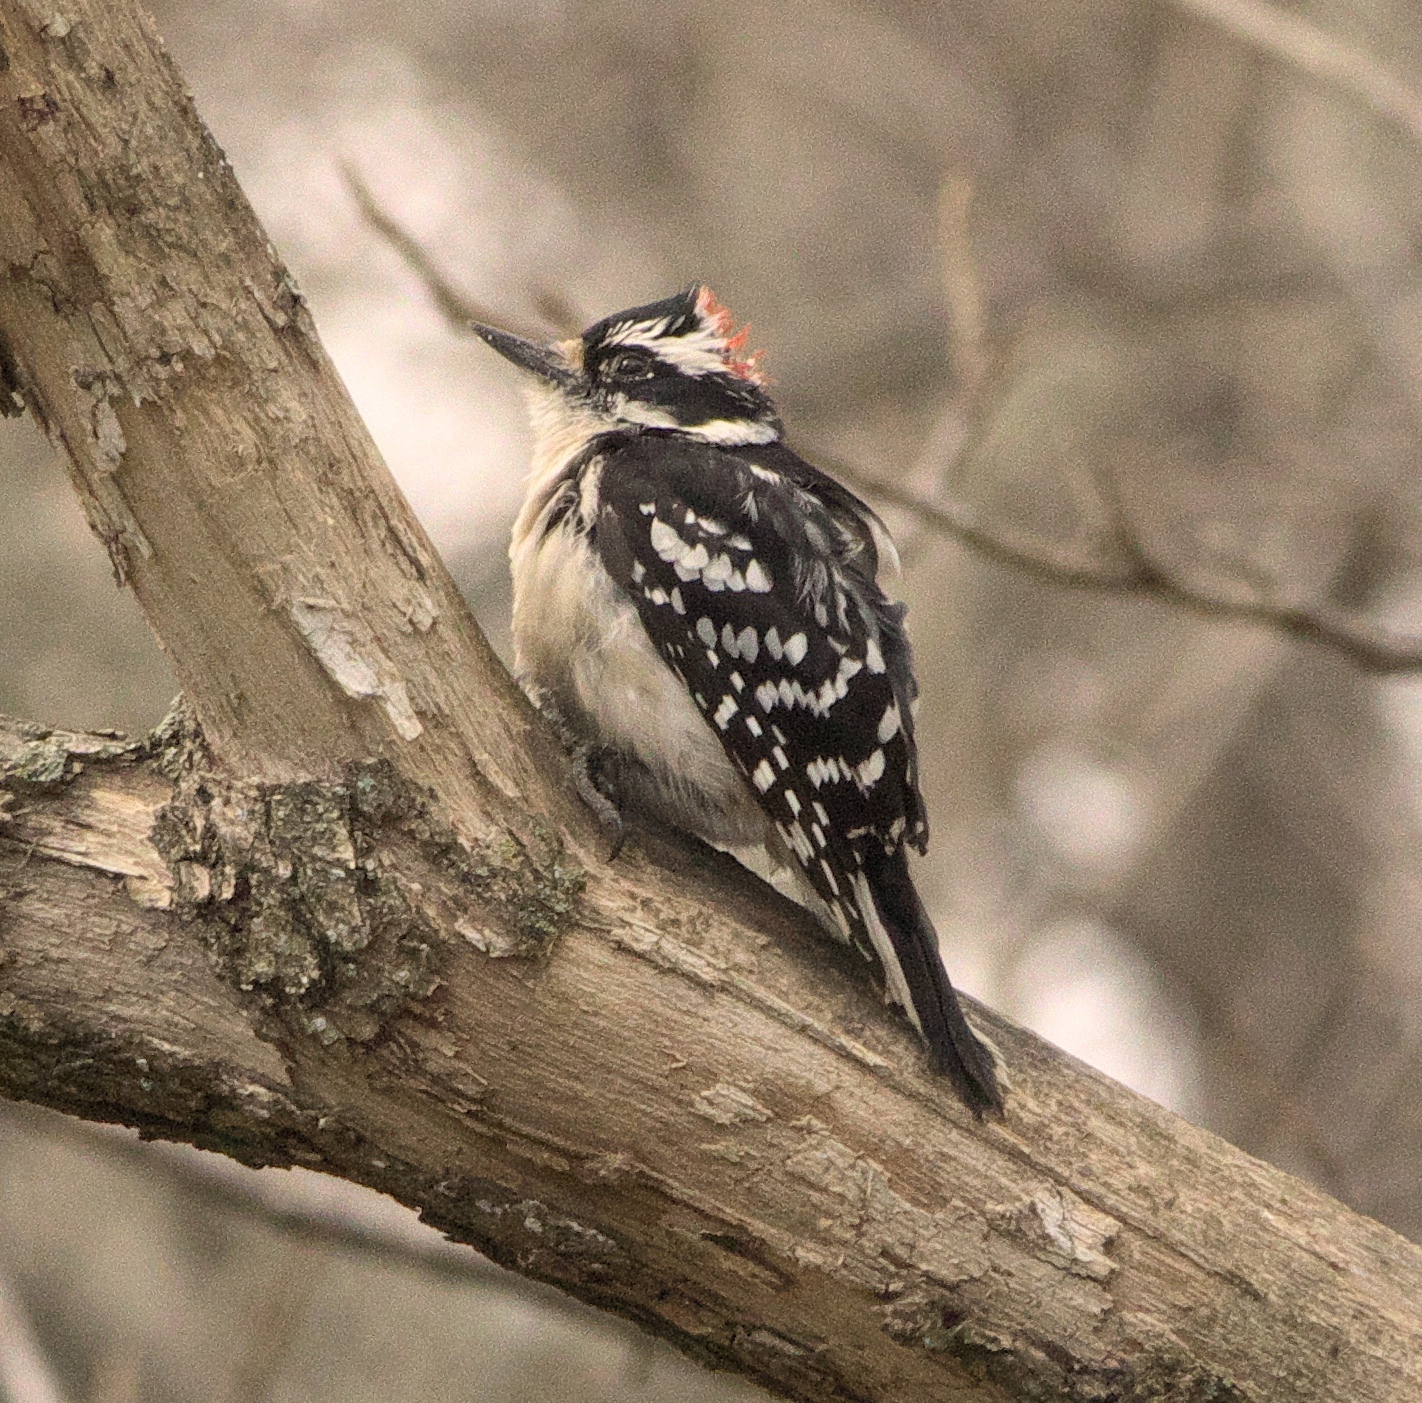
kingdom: Animalia
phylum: Chordata
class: Aves
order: Piciformes
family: Picidae
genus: Leuconotopicus
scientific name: Leuconotopicus villosus
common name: Hairy woodpecker
